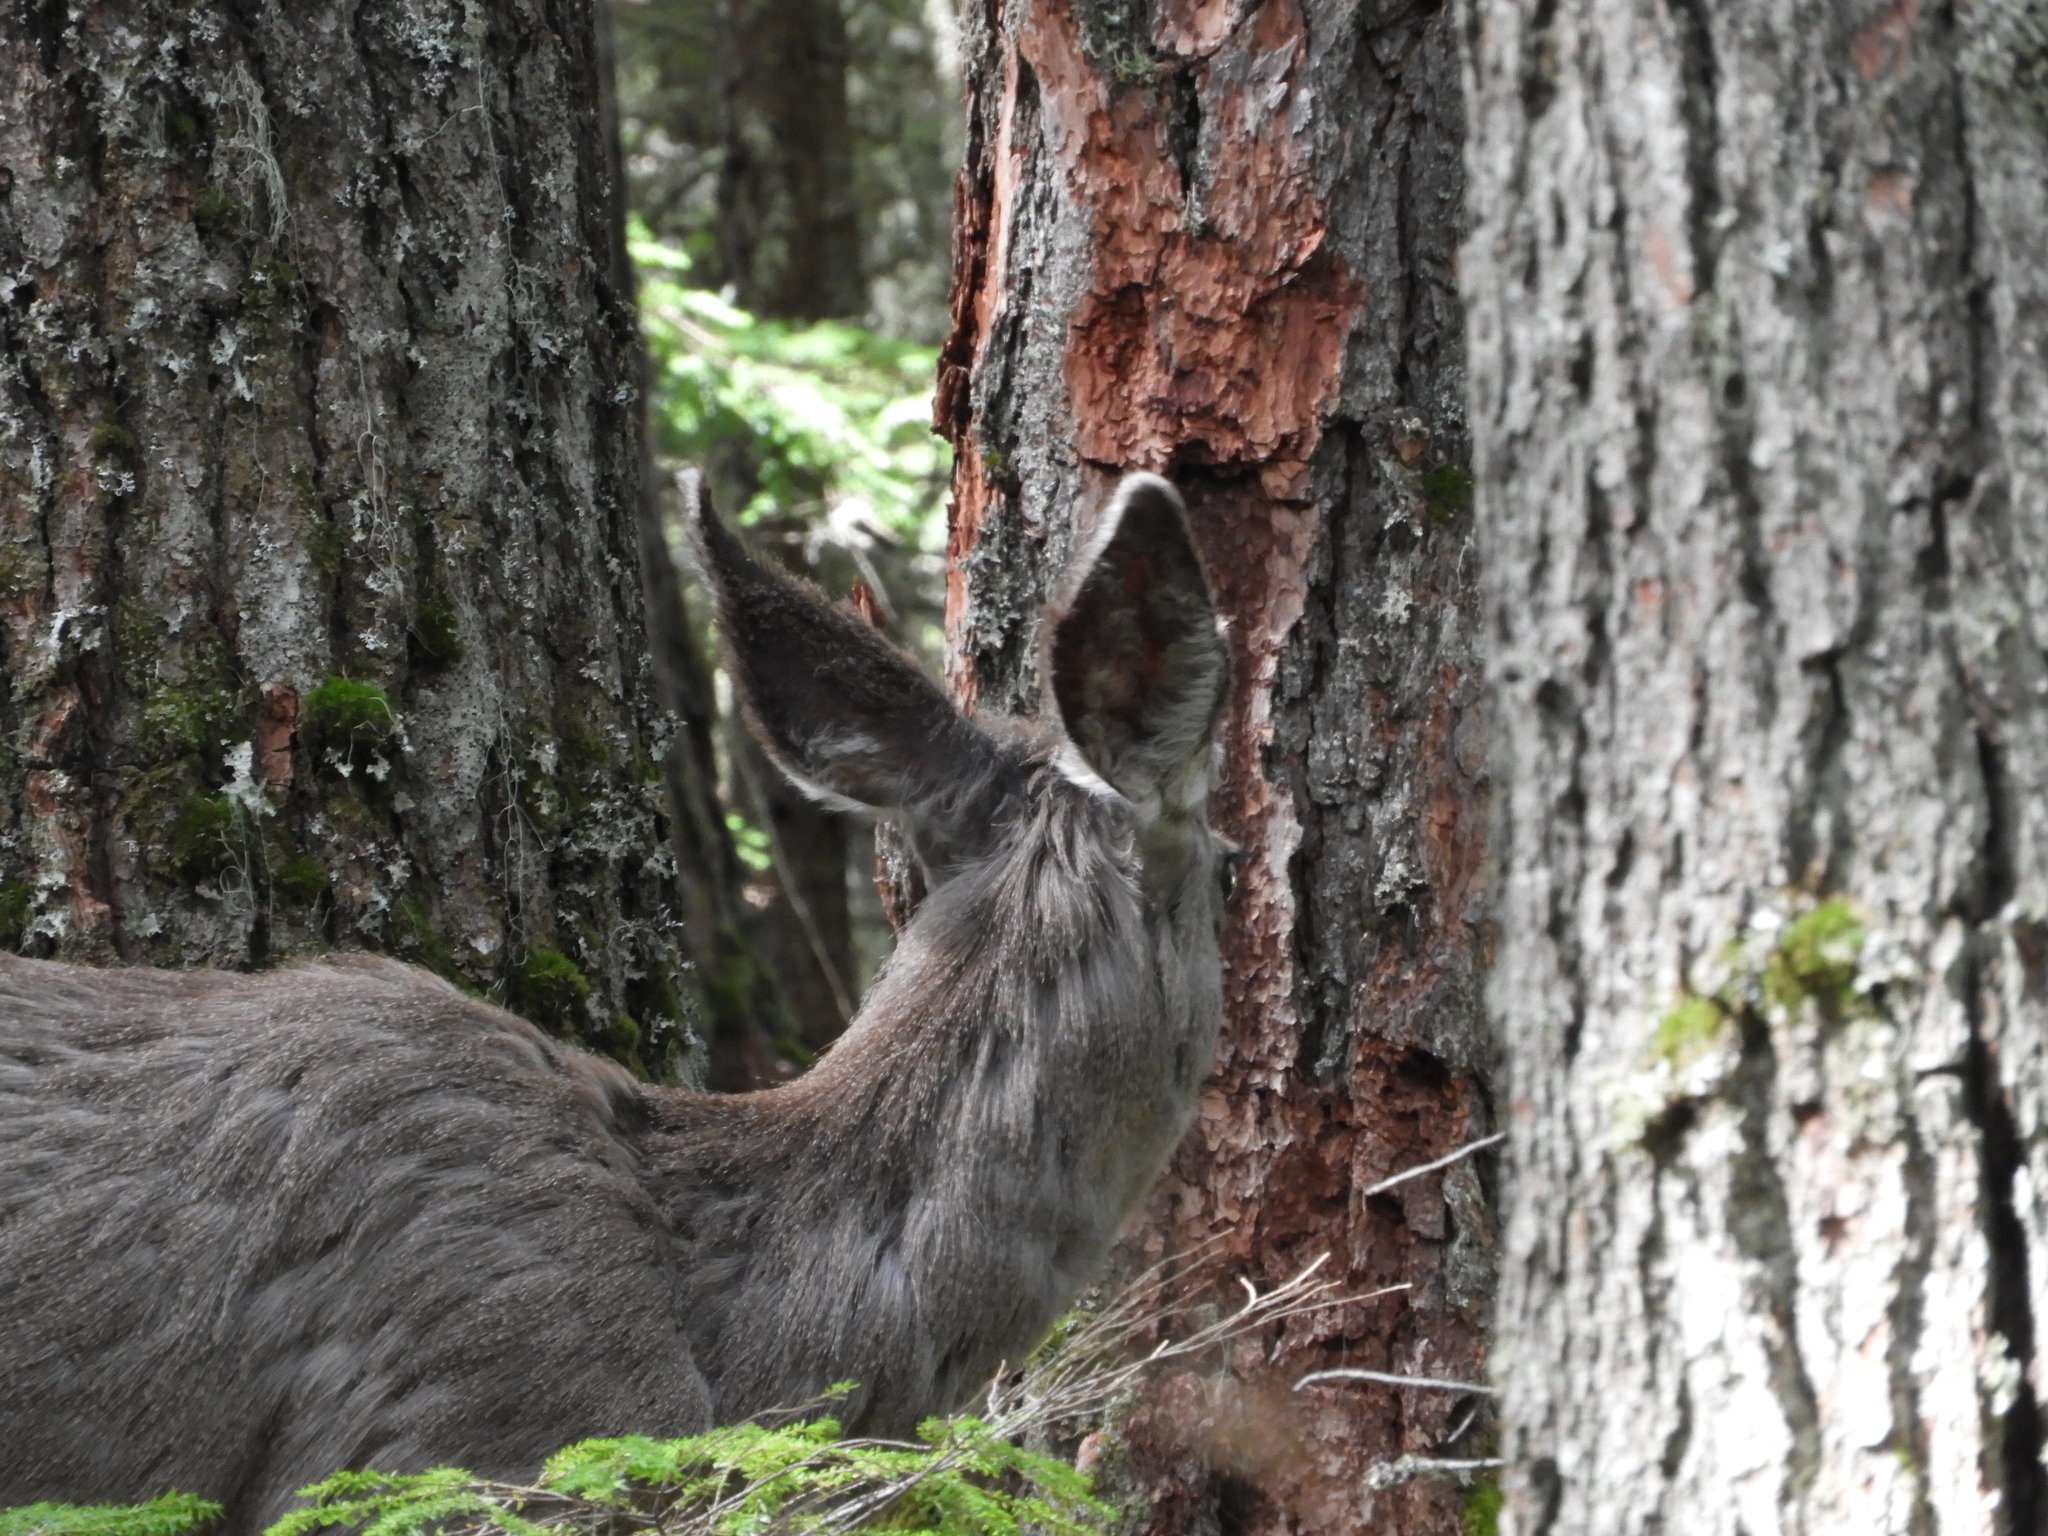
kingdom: Animalia
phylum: Chordata
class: Mammalia
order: Artiodactyla
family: Cervidae
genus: Odocoileus
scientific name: Odocoileus hemionus
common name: Mule deer
